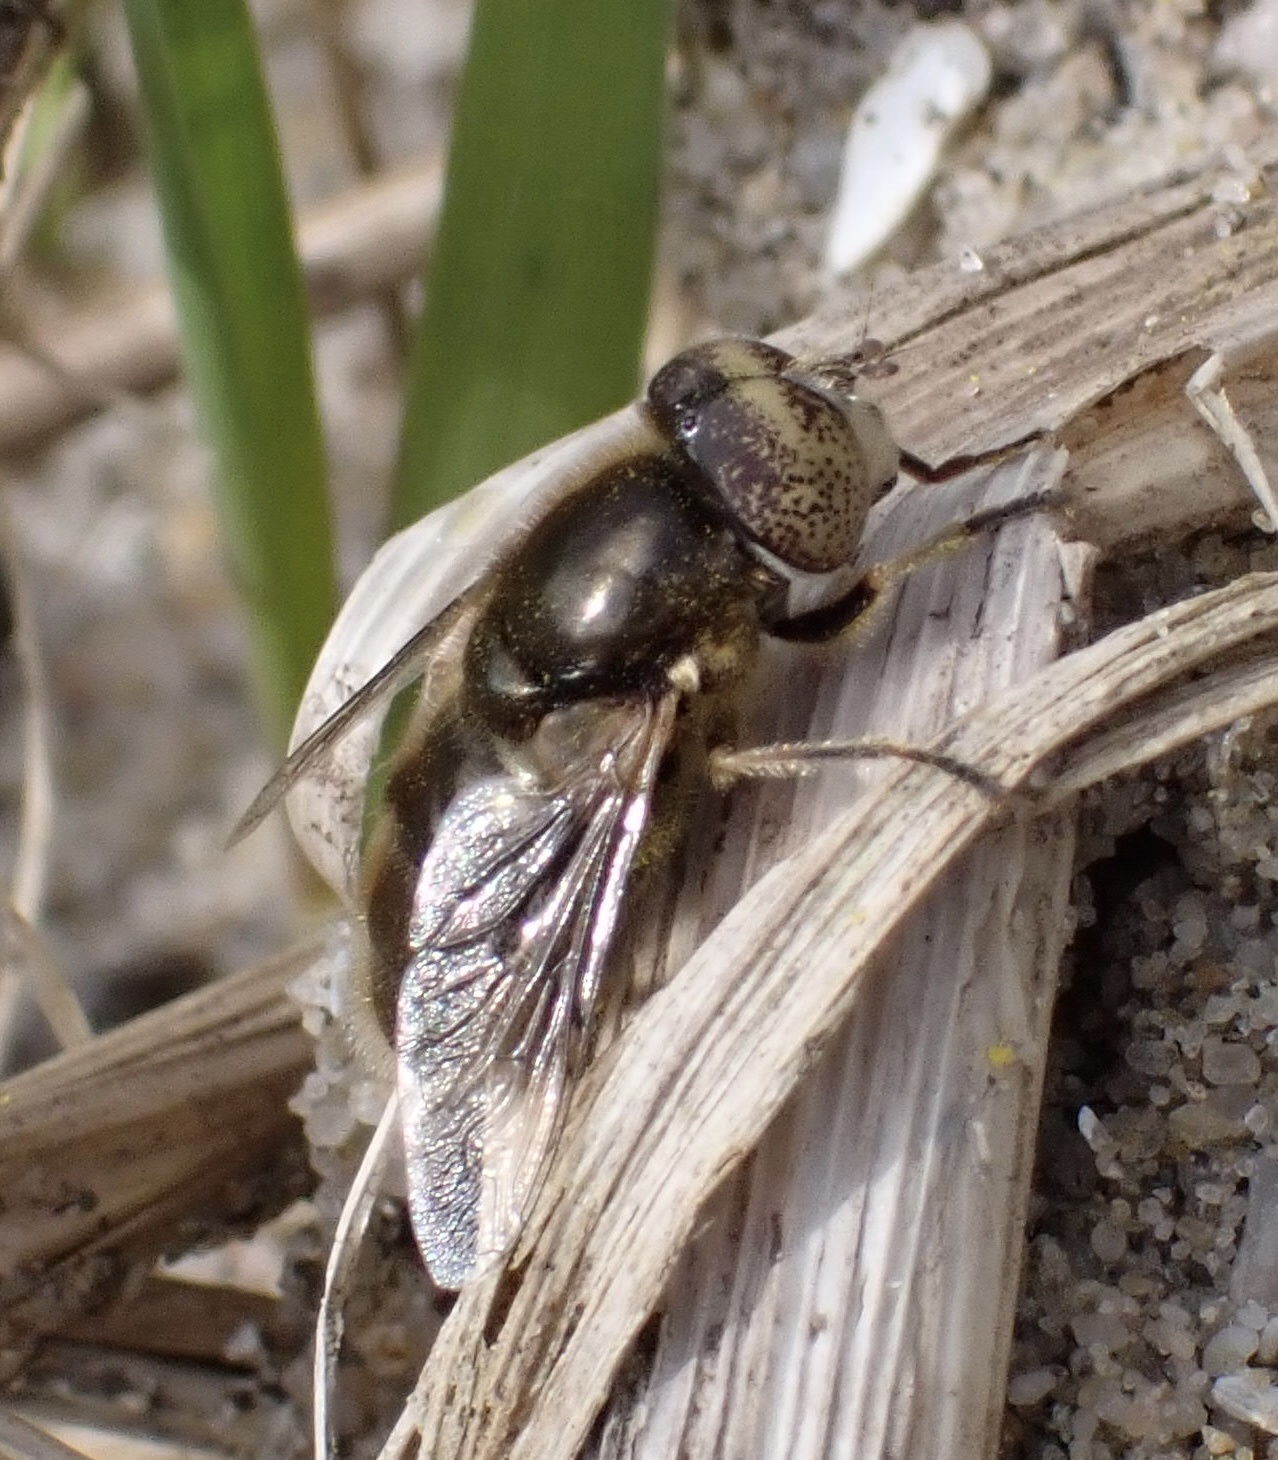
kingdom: Animalia
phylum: Arthropoda
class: Insecta
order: Diptera
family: Syrphidae
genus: Eristalinus
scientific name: Eristalinus aeneus
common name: Syrphid fly
